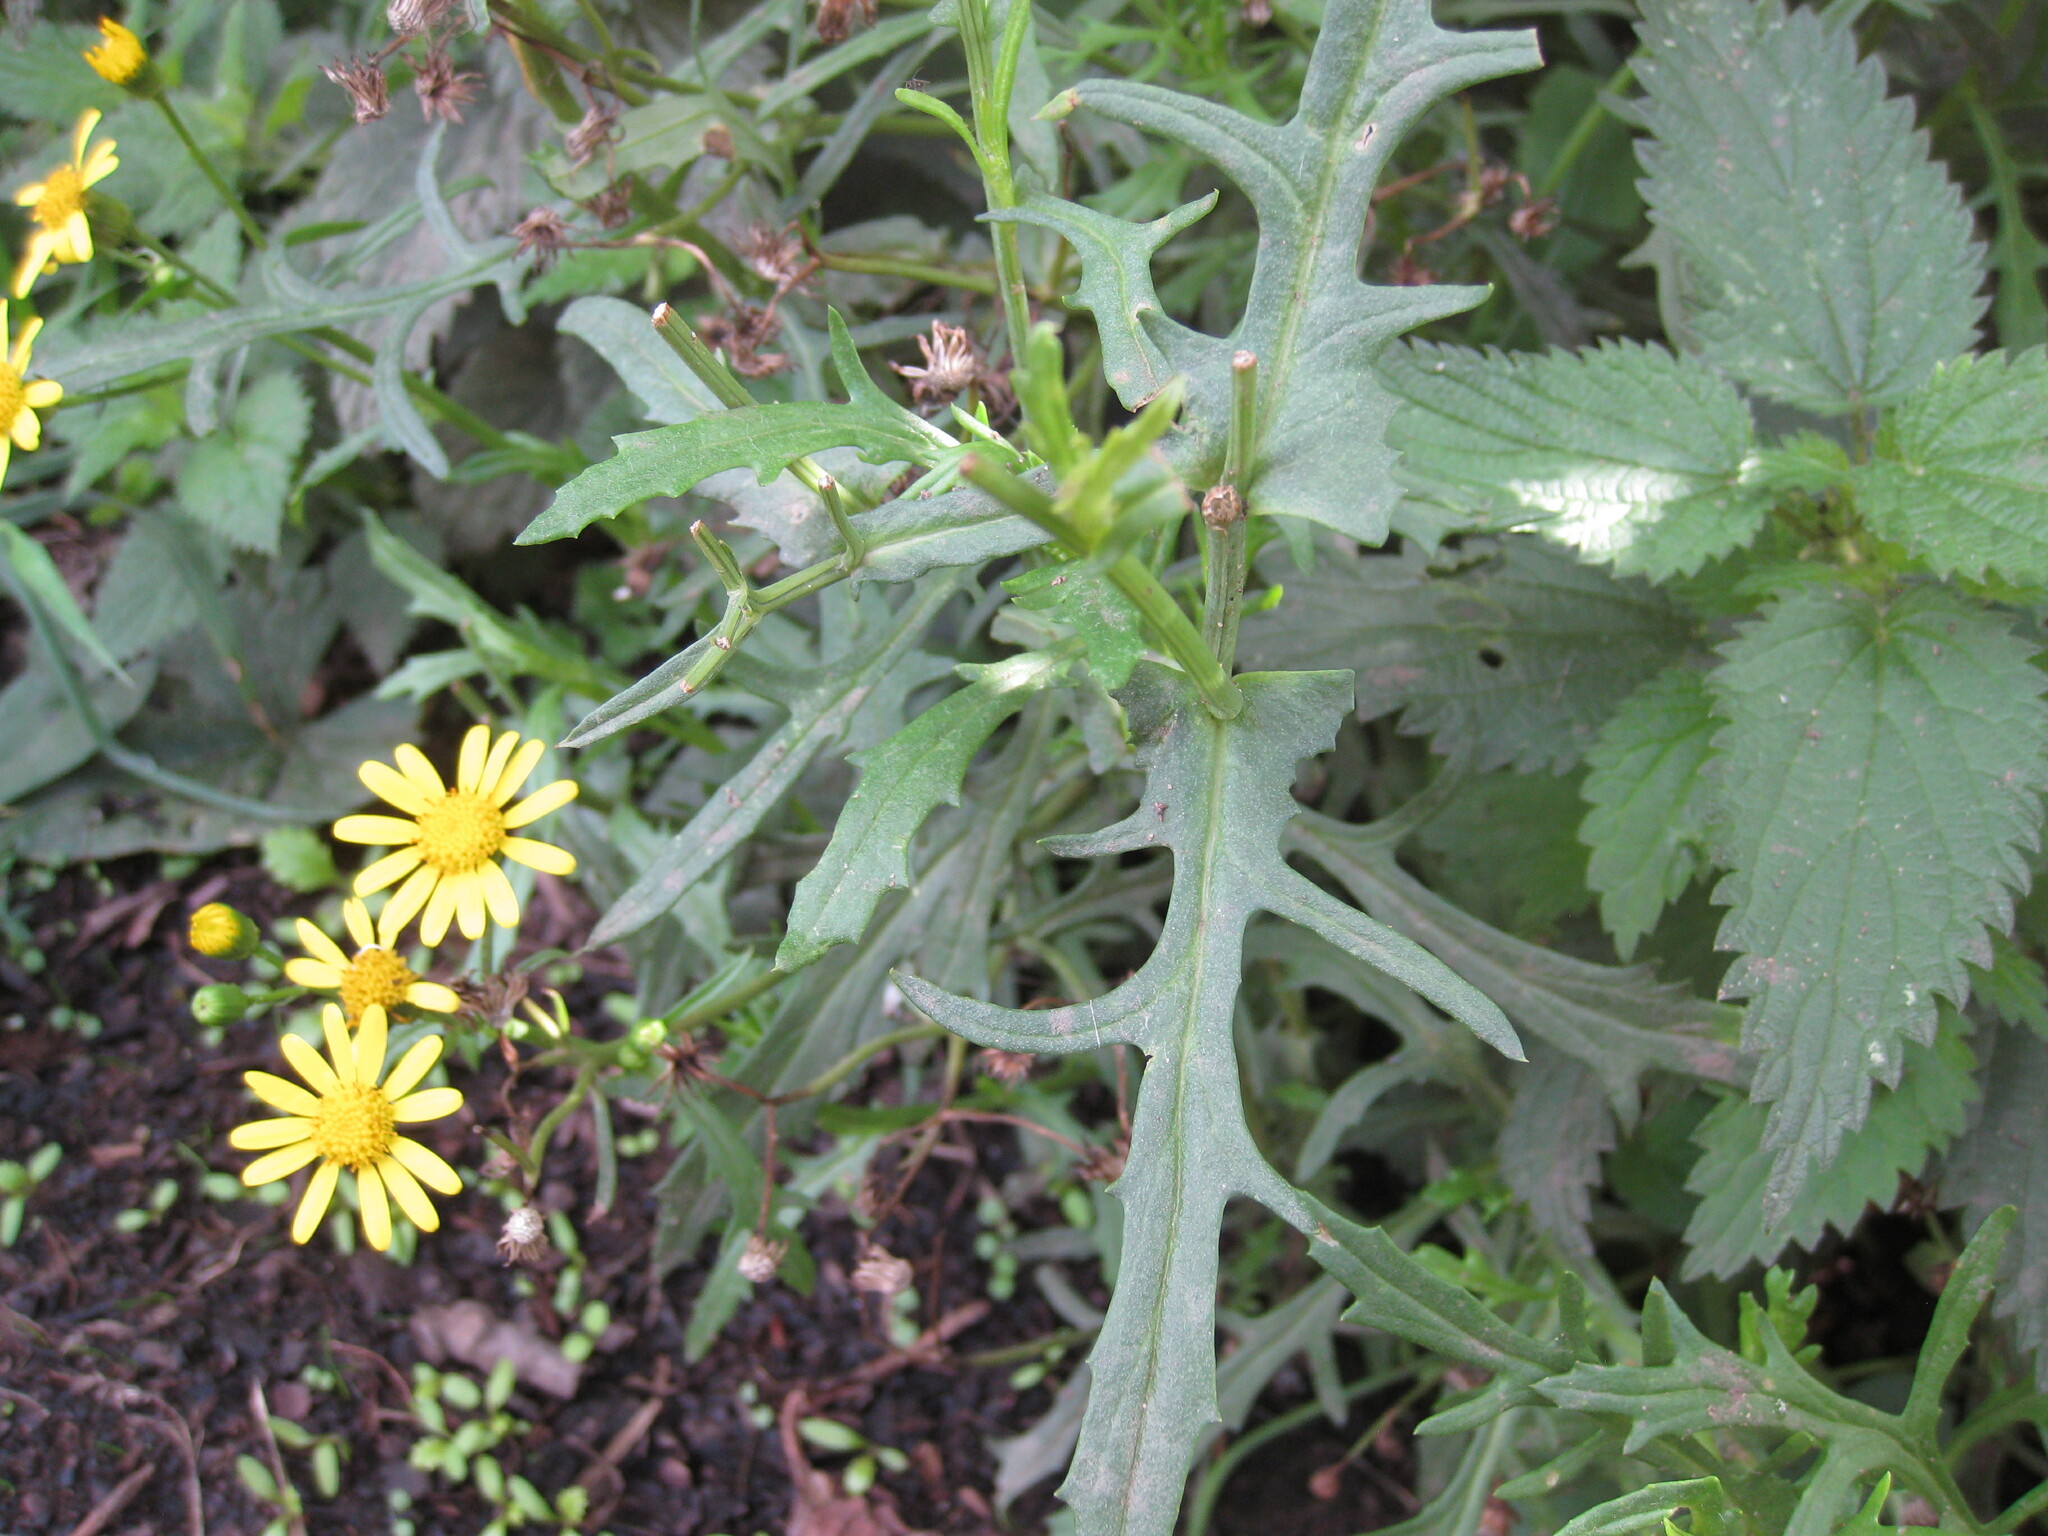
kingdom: Plantae
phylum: Tracheophyta
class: Magnoliopsida
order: Asterales
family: Asteraceae
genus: Senecio
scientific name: Senecio squalidus
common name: Oxford ragwort
